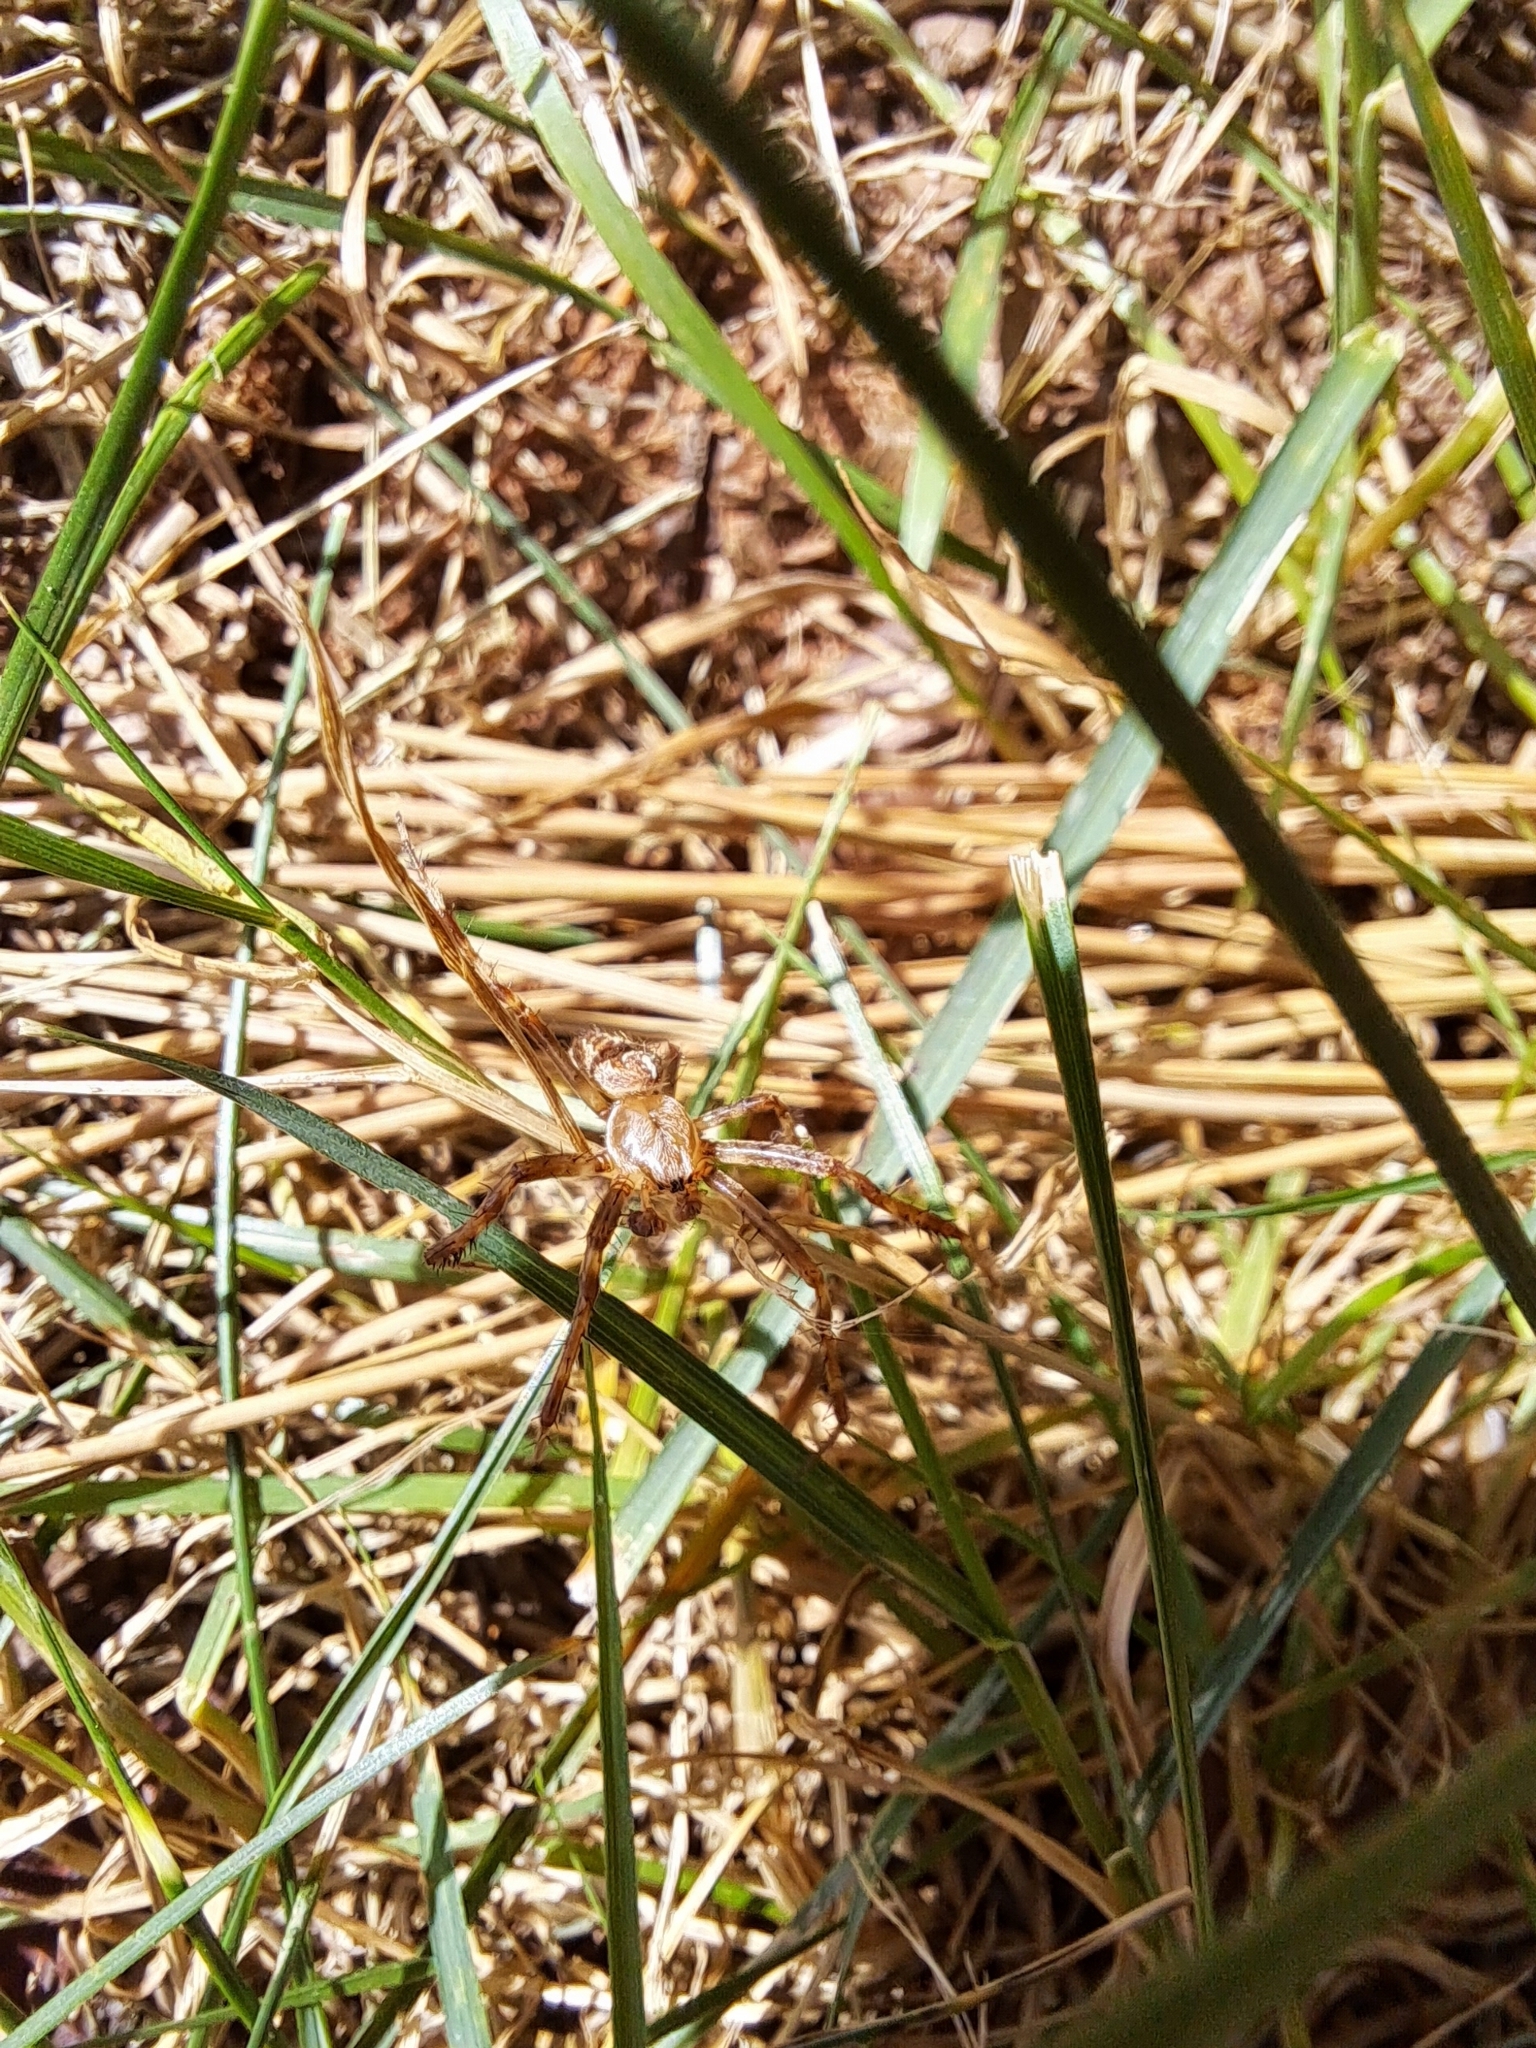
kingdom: Animalia
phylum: Arthropoda
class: Arachnida
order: Araneae
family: Araneidae
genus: Araneus
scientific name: Araneus diadematus
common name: Cross orbweaver
